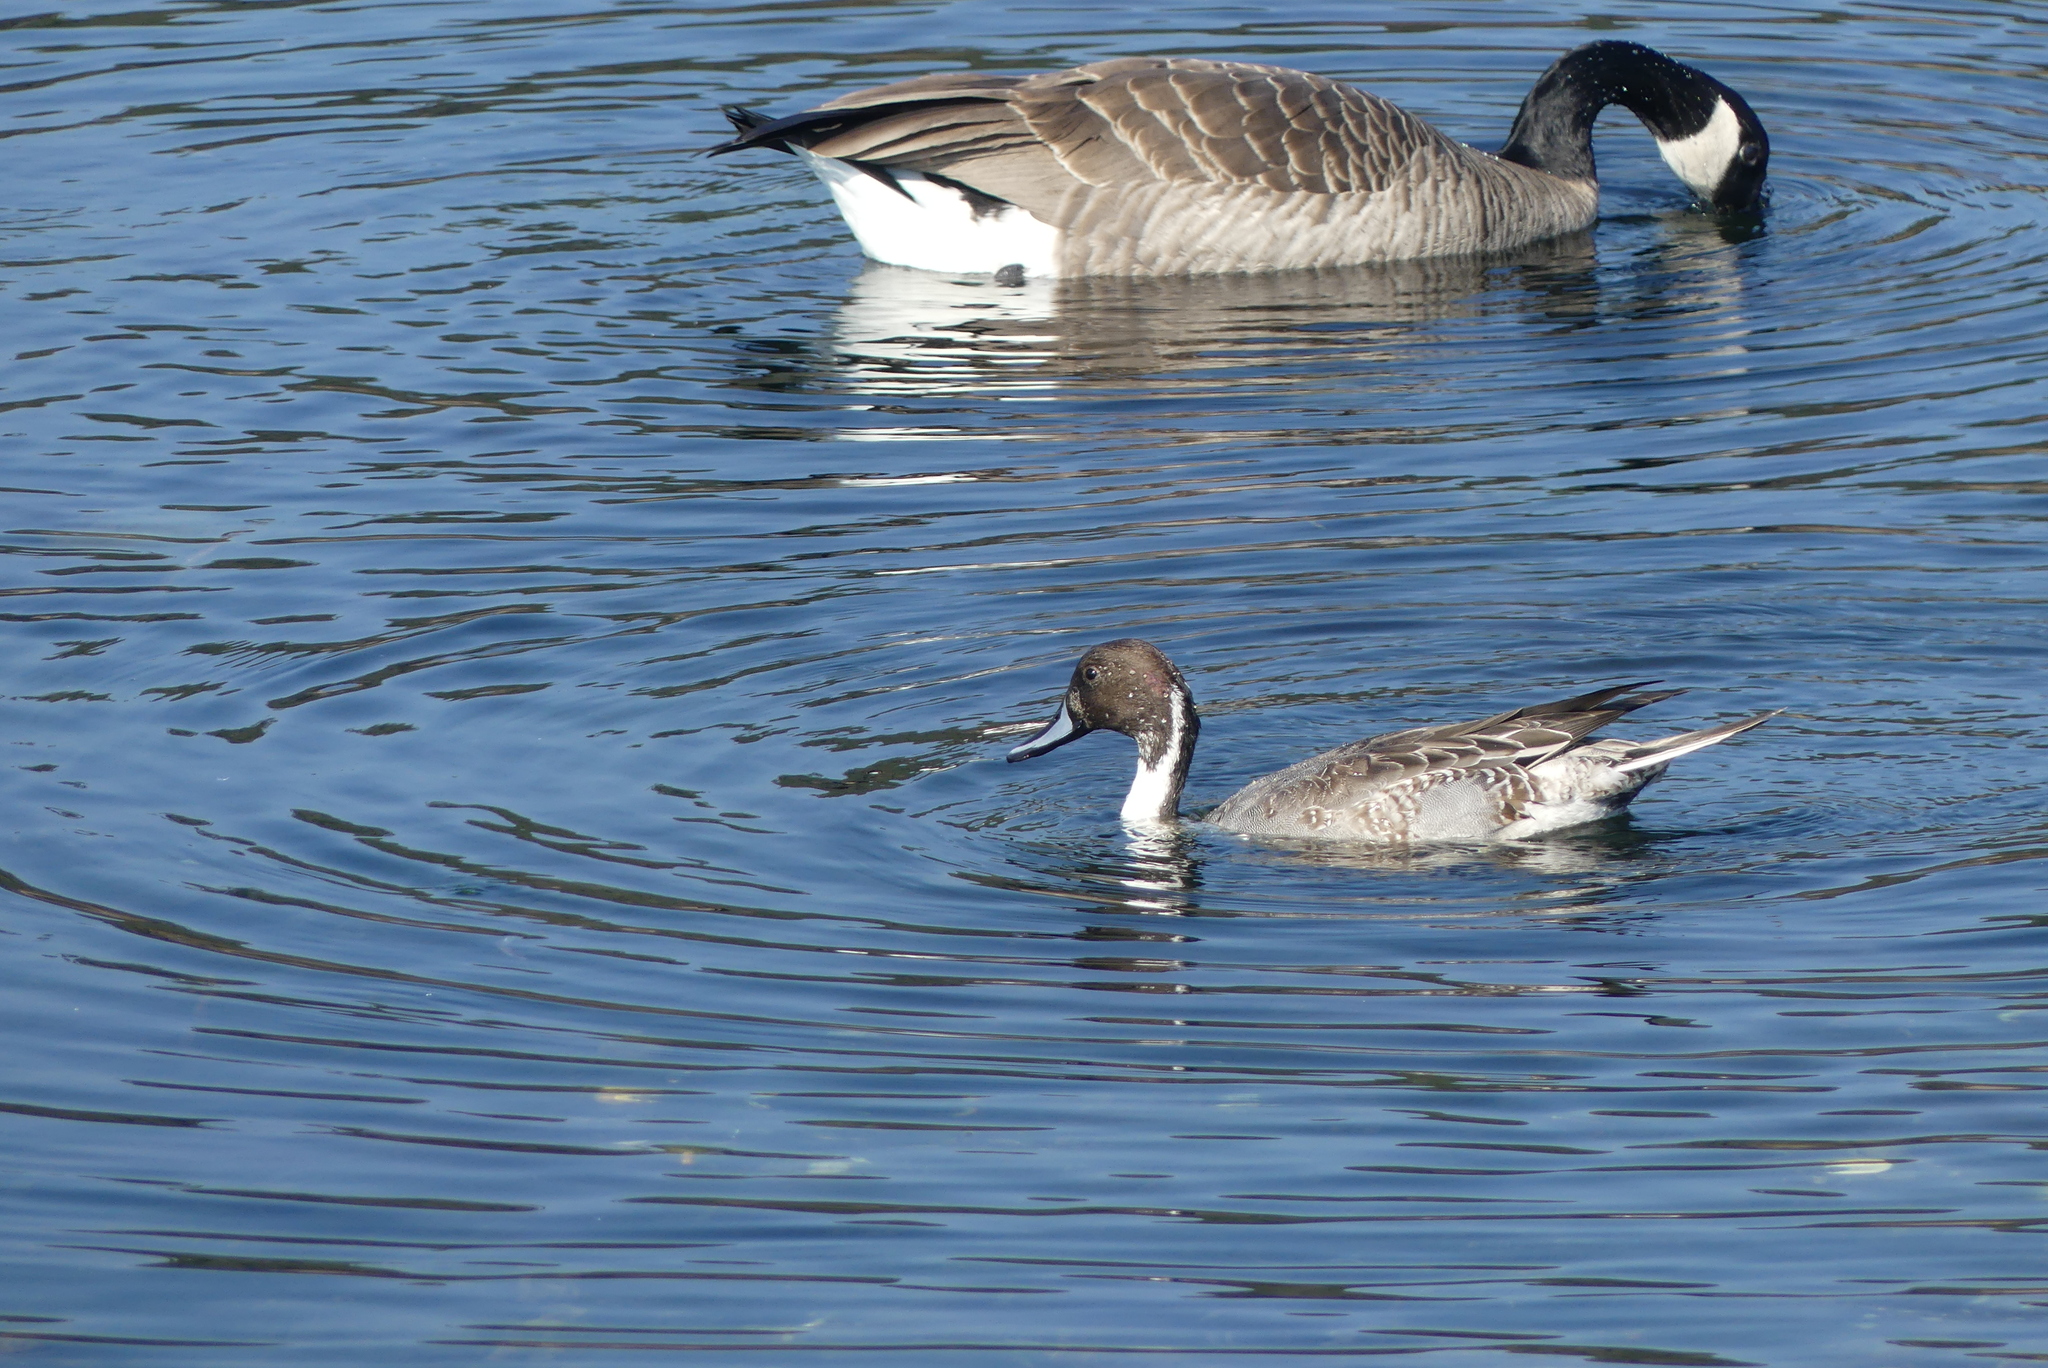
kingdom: Animalia
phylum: Chordata
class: Aves
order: Anseriformes
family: Anatidae
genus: Anas
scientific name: Anas acuta
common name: Northern pintail
